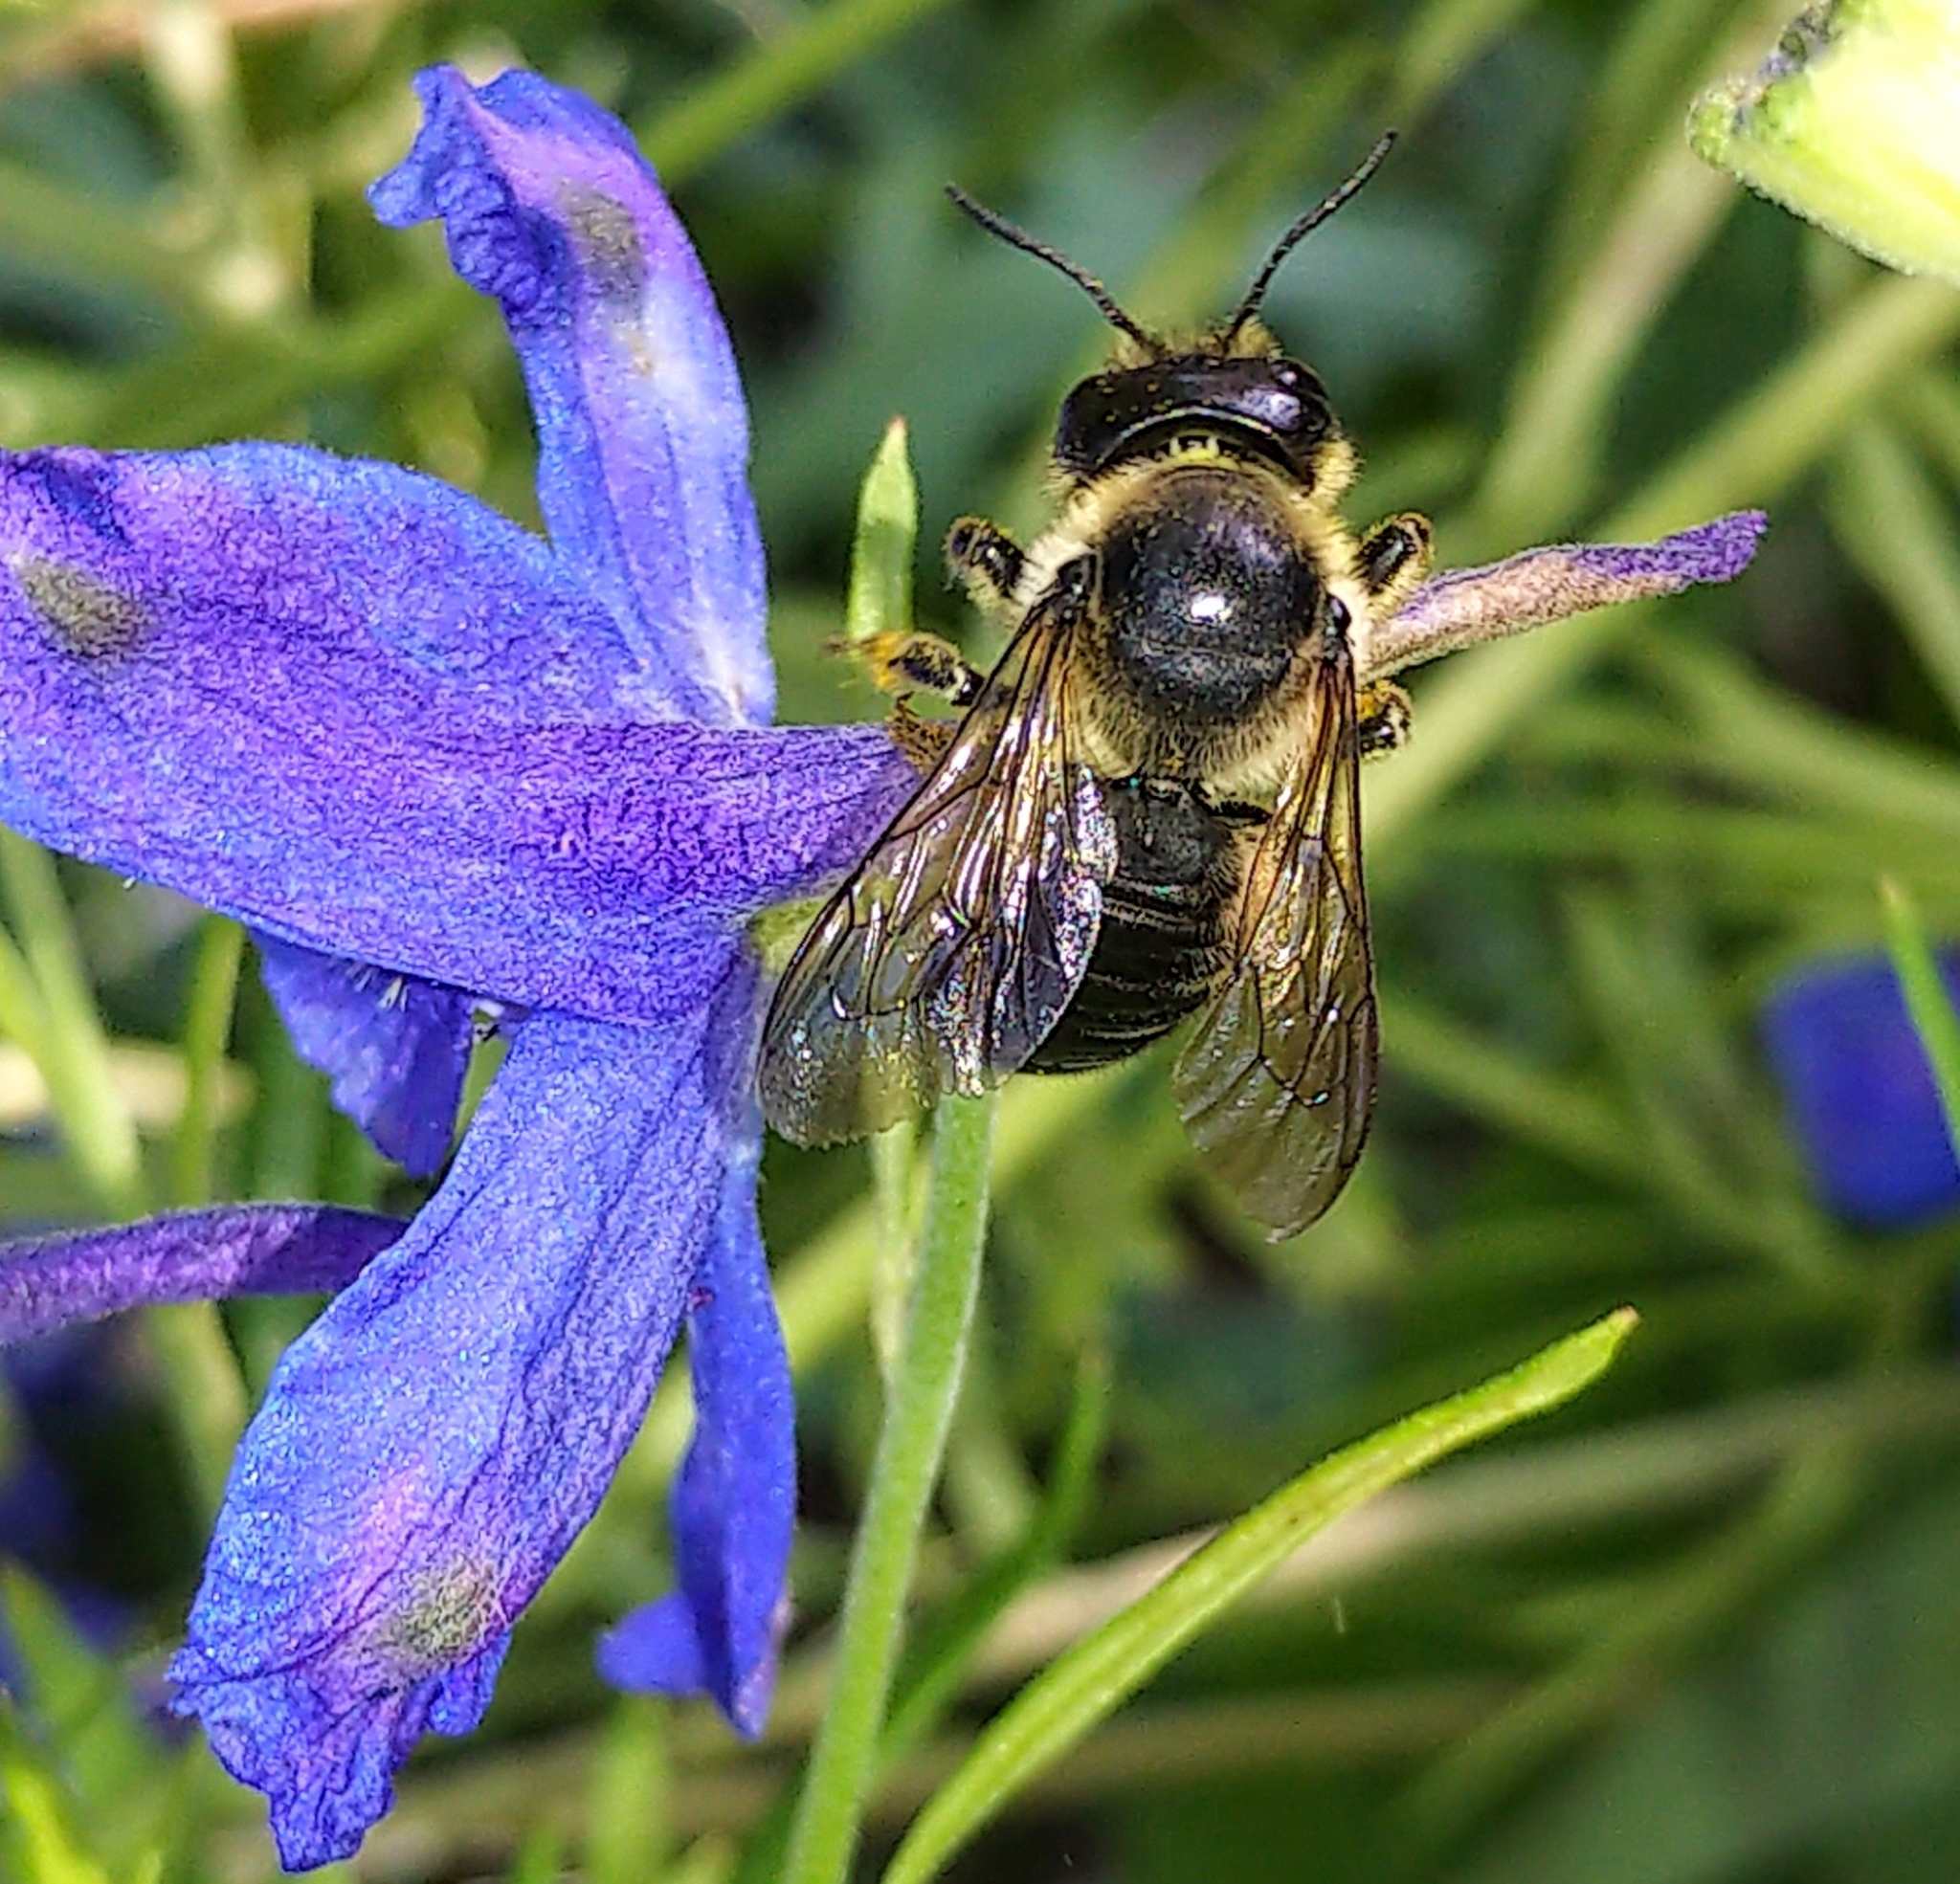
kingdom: Animalia
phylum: Arthropoda
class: Insecta
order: Hymenoptera
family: Megachilidae
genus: Megachile
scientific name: Megachile inermis
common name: Unarmed leafcutter bee
